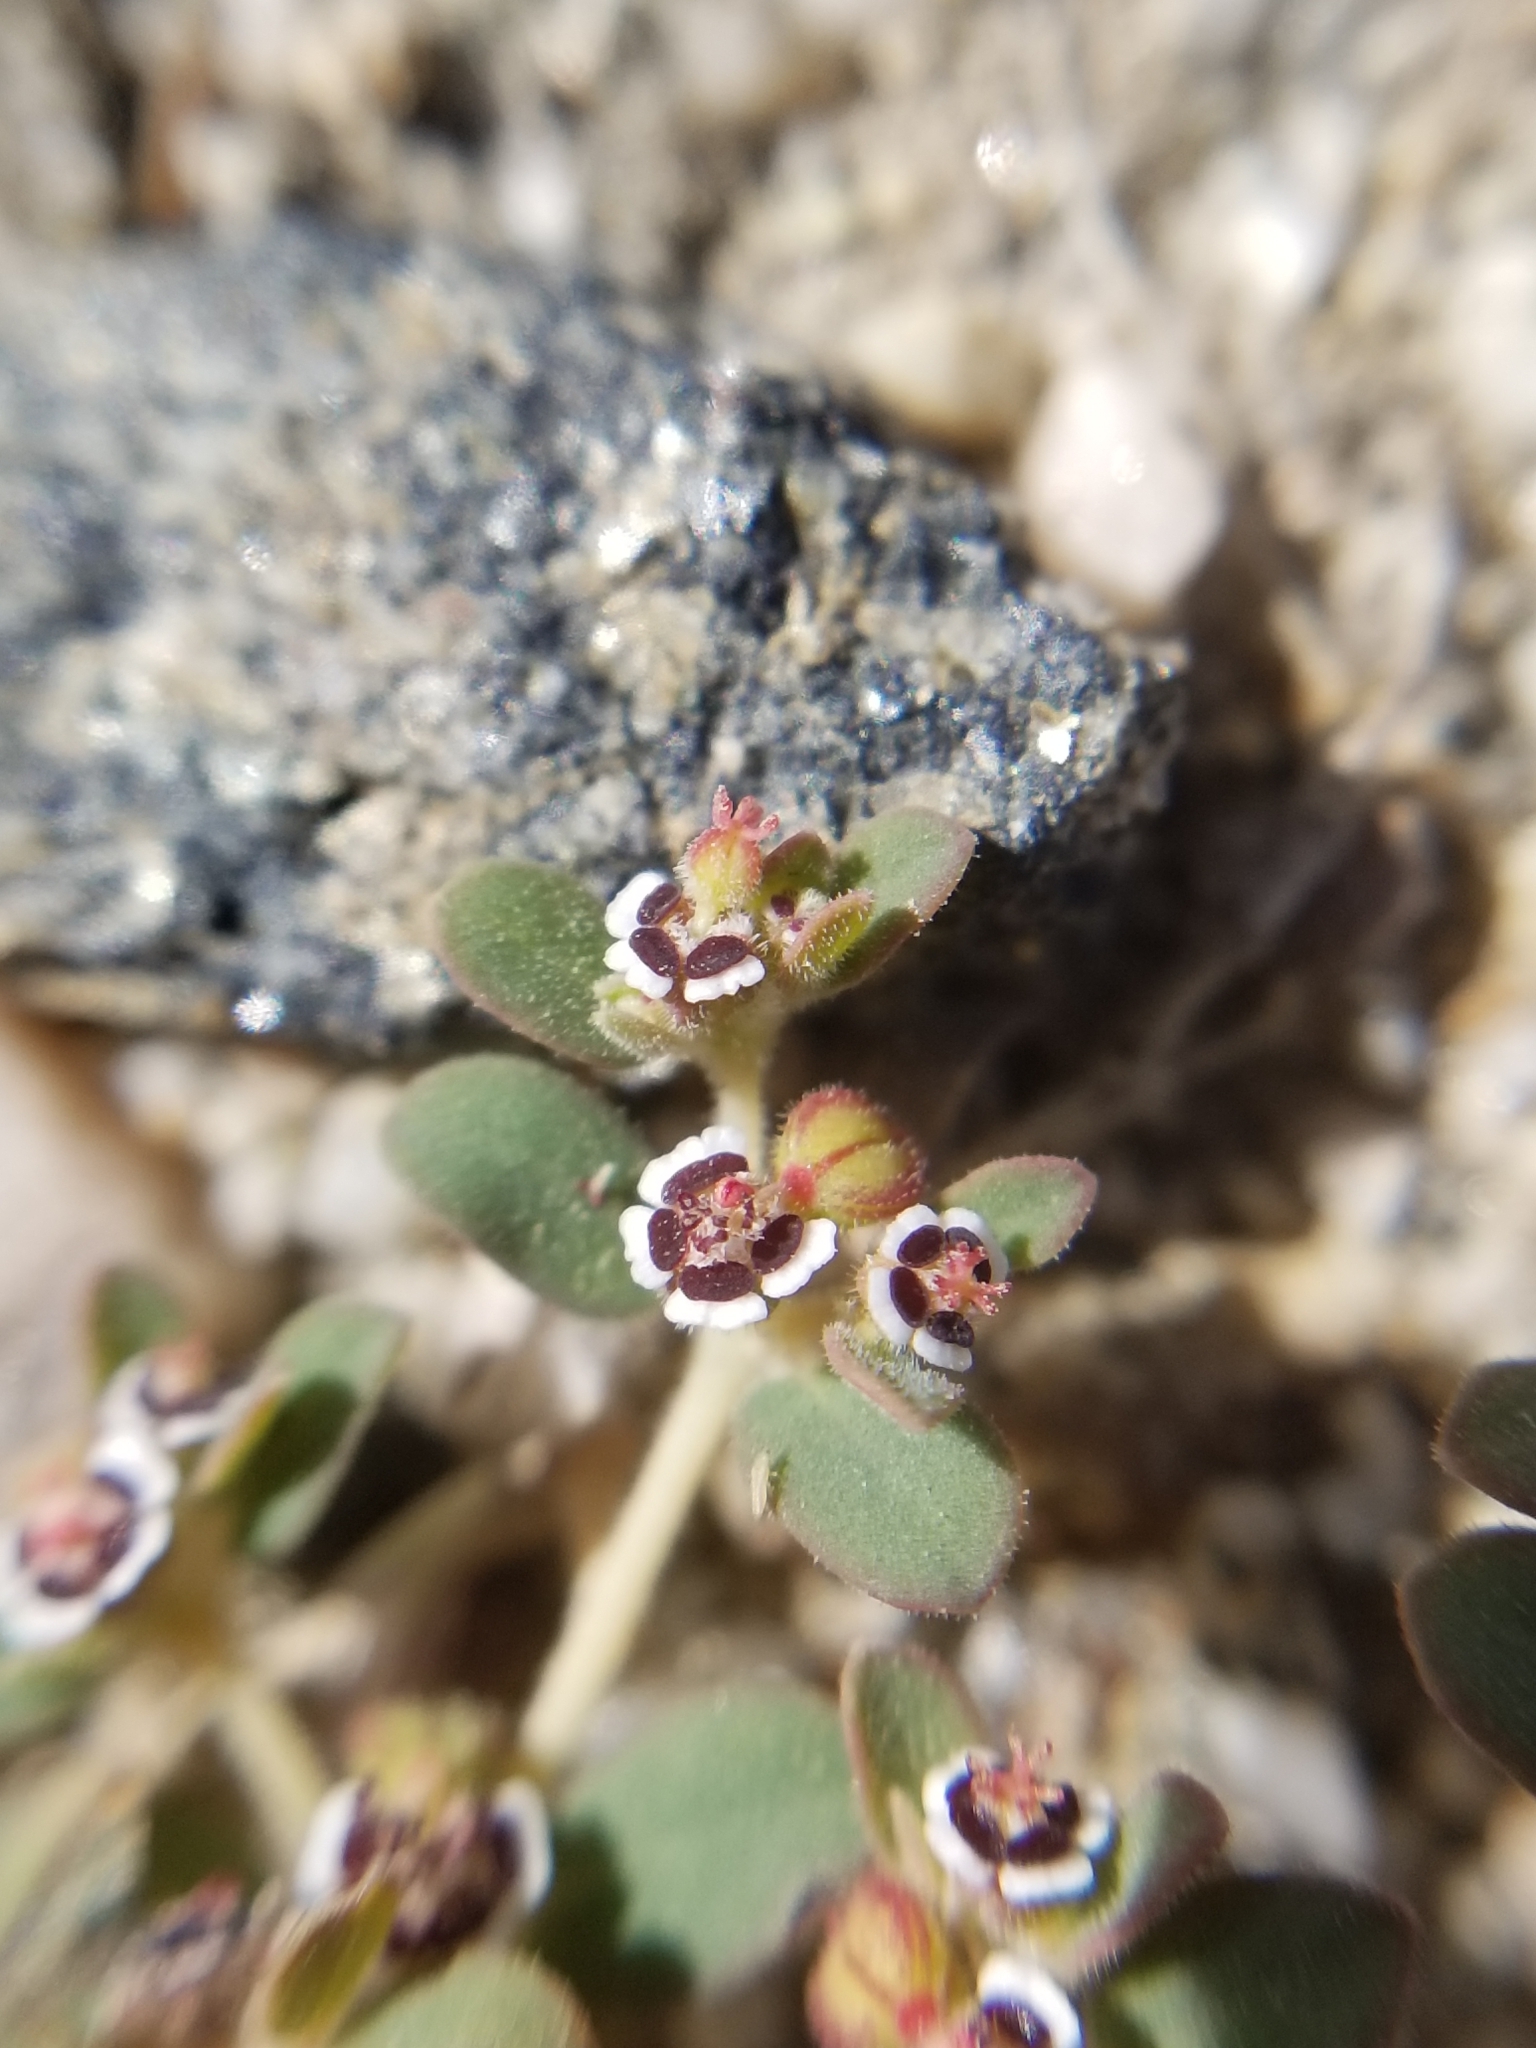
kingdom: Plantae
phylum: Tracheophyta
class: Magnoliopsida
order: Malpighiales
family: Euphorbiaceae
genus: Euphorbia
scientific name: Euphorbia polycarpa
